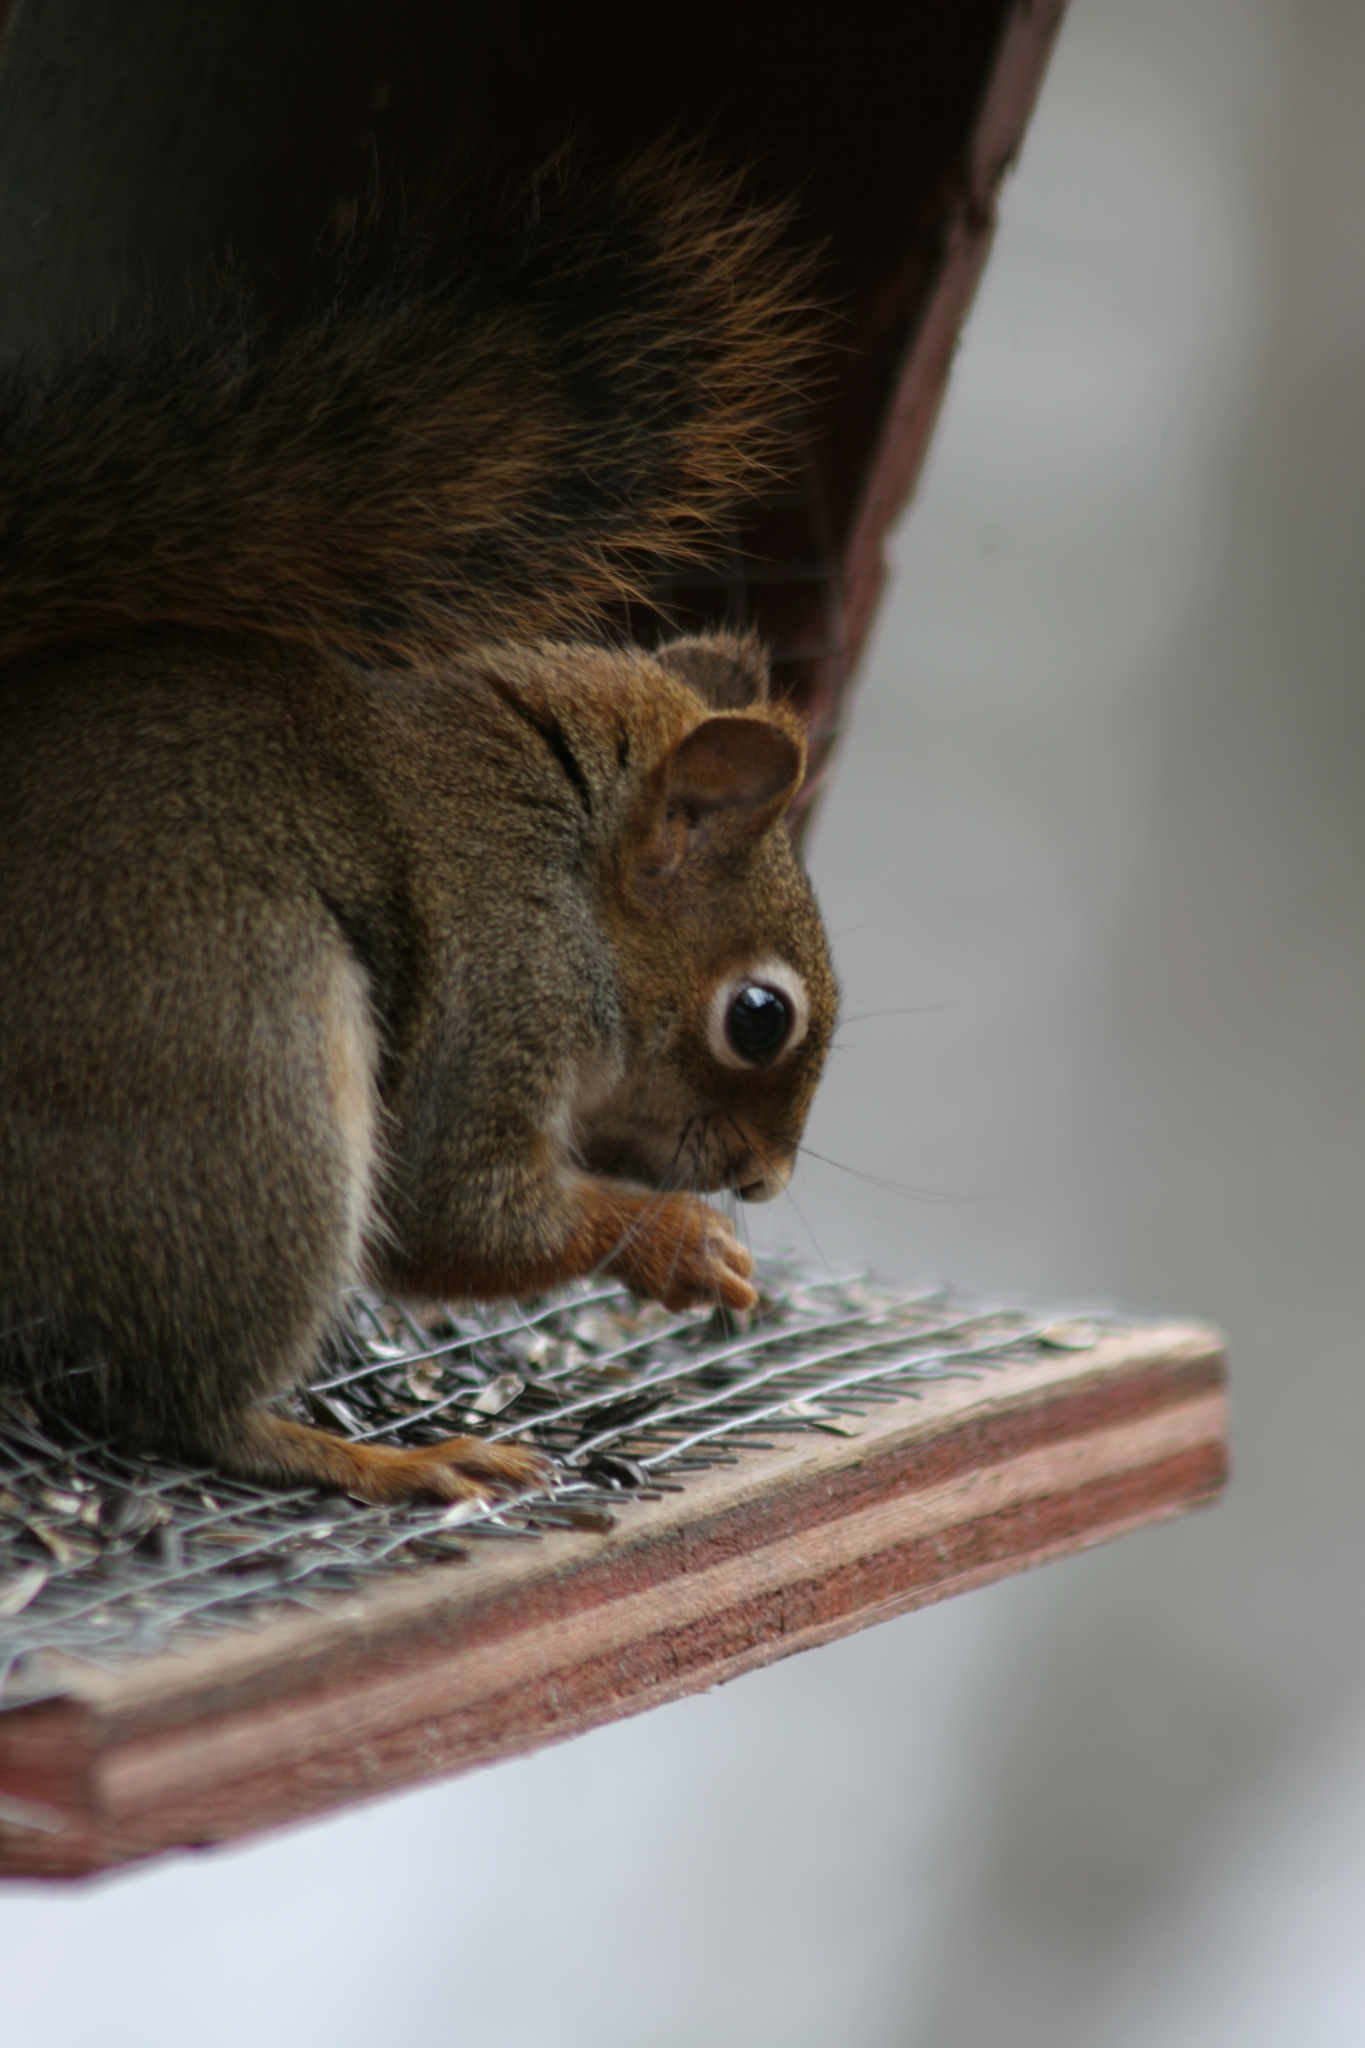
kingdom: Animalia
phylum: Chordata
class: Mammalia
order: Rodentia
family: Sciuridae
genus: Tamiasciurus
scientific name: Tamiasciurus hudsonicus
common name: Red squirrel
